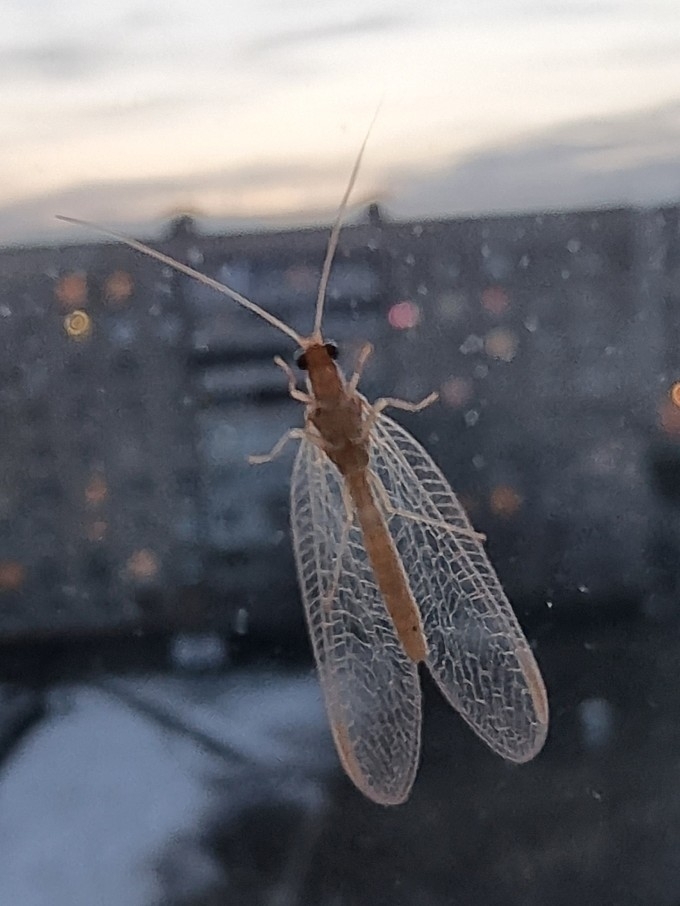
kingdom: Animalia
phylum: Arthropoda
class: Insecta
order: Neuroptera
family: Chrysopidae
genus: Chrysoperla
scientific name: Chrysoperla
